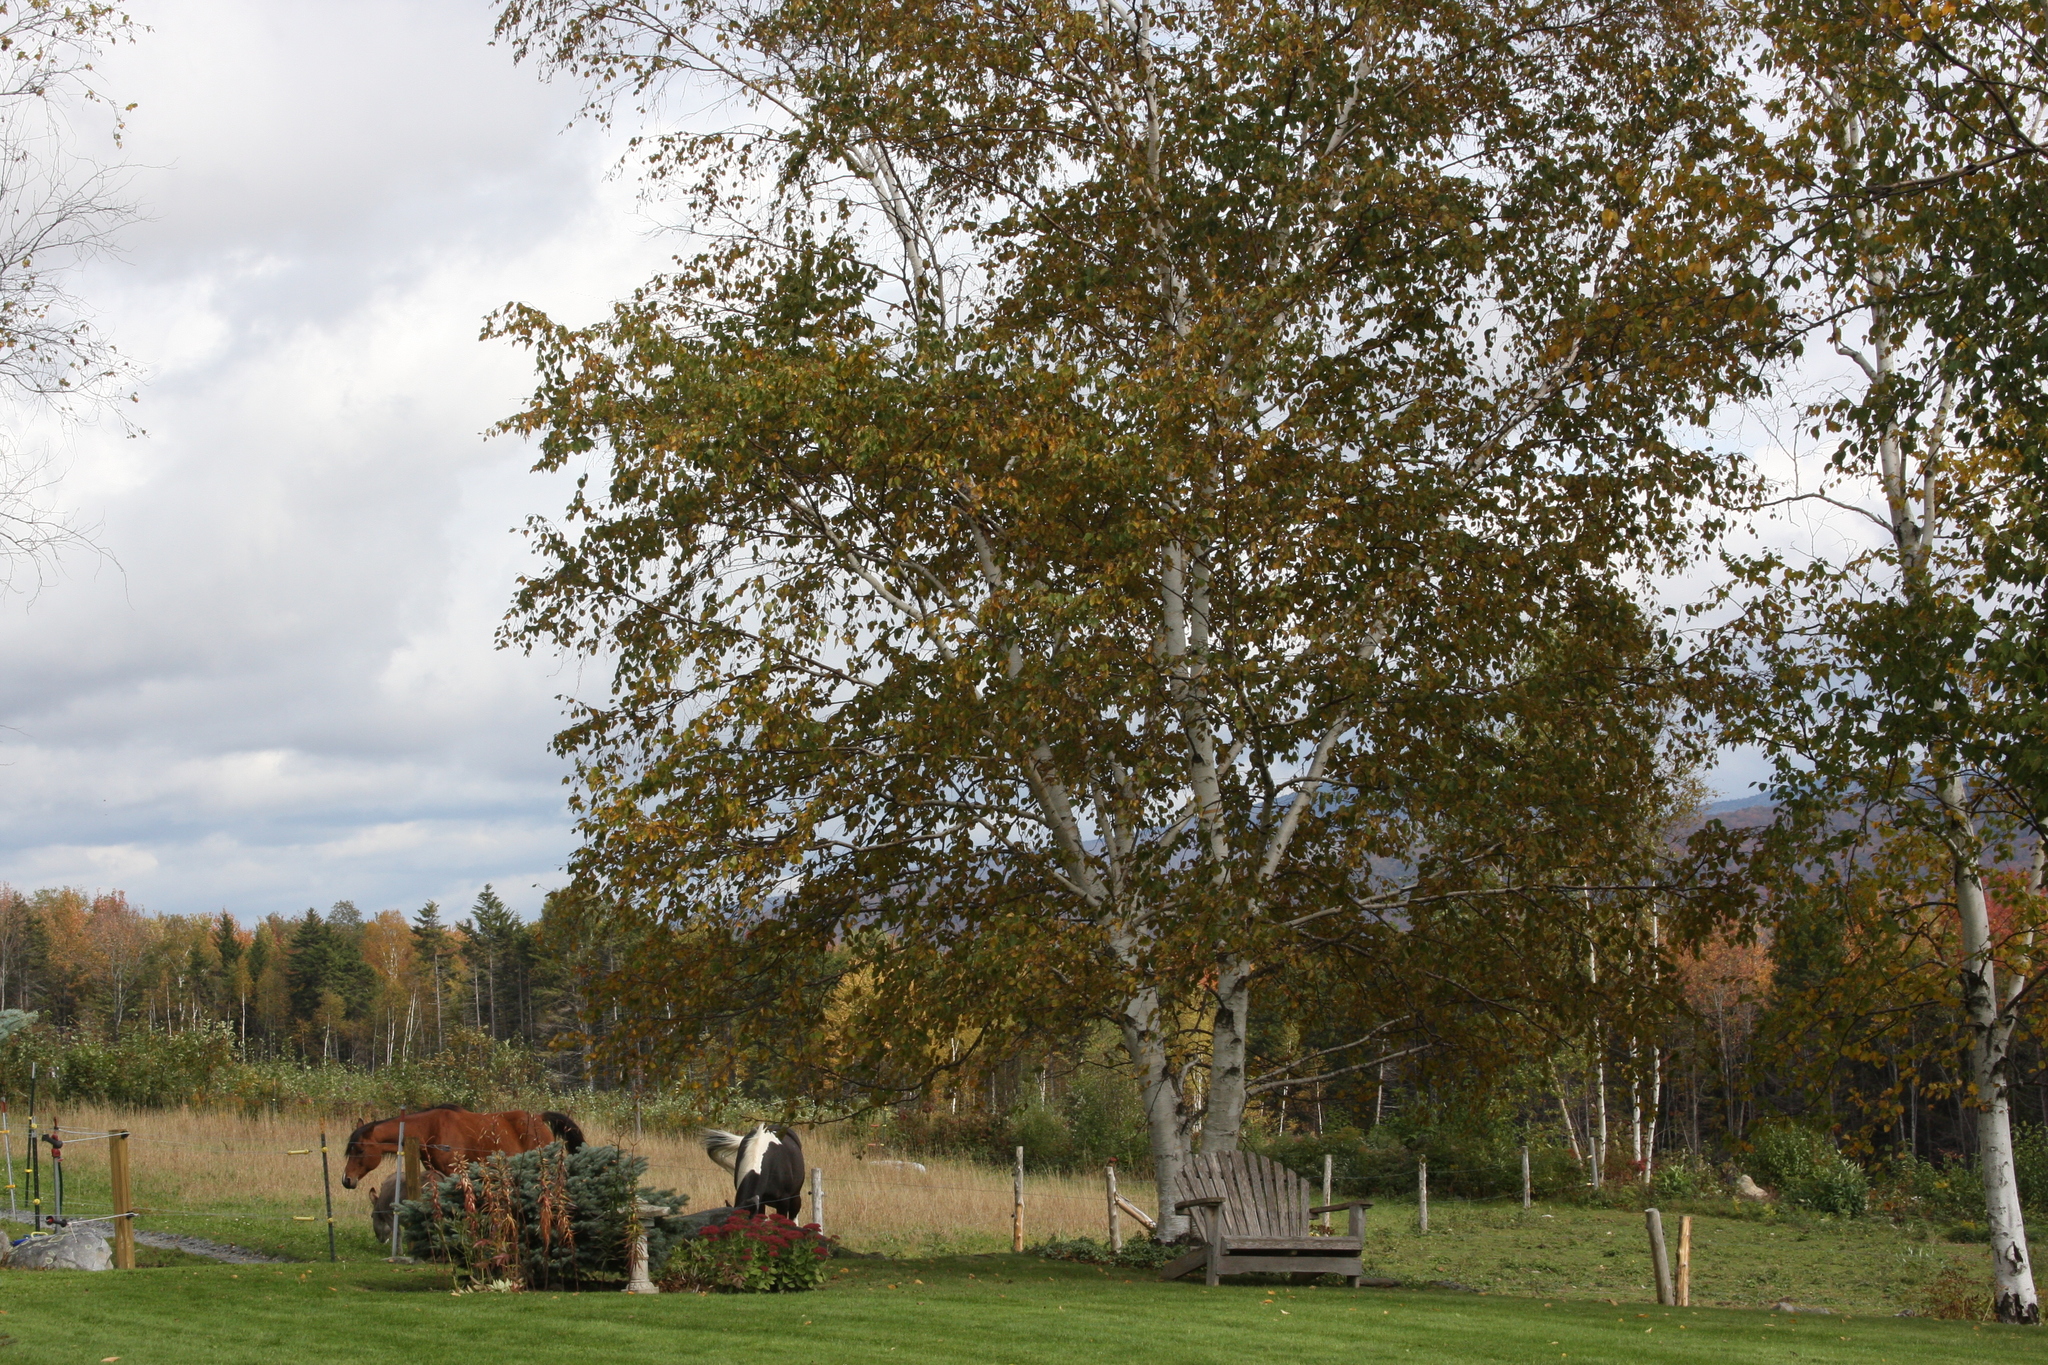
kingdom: Plantae
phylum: Tracheophyta
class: Magnoliopsida
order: Fagales
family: Betulaceae
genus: Betula
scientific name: Betula papyrifera
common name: Paper birch
